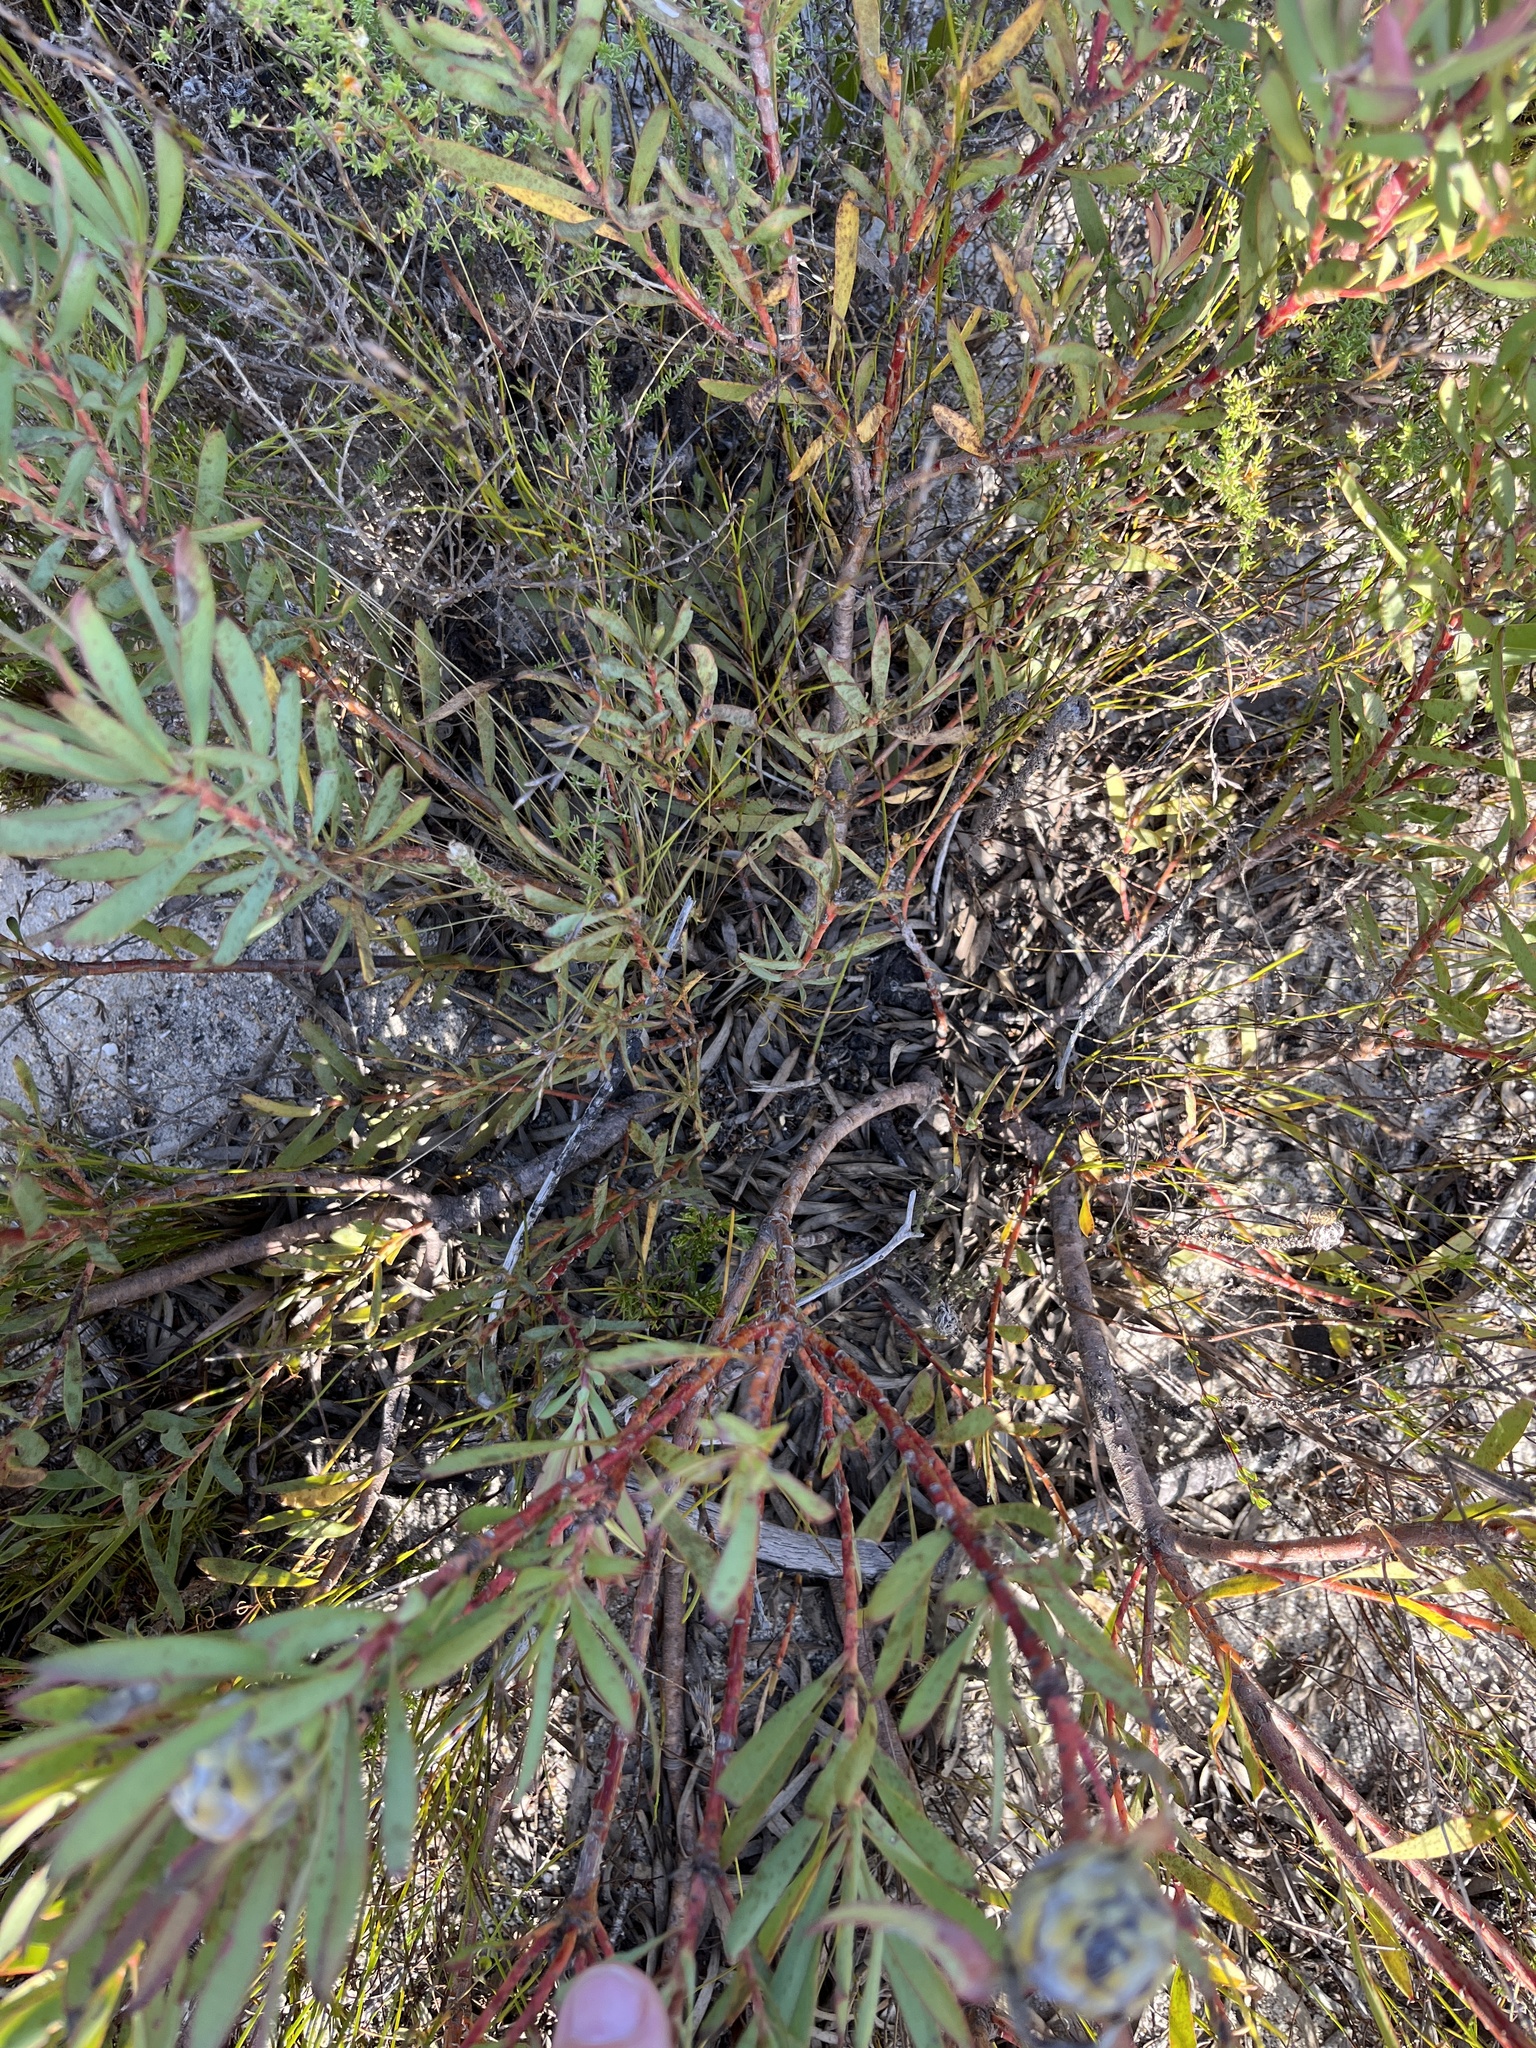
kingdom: Plantae
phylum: Tracheophyta
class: Magnoliopsida
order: Proteales
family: Proteaceae
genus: Leucadendron
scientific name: Leucadendron salignum
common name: Common sunshine conebush
